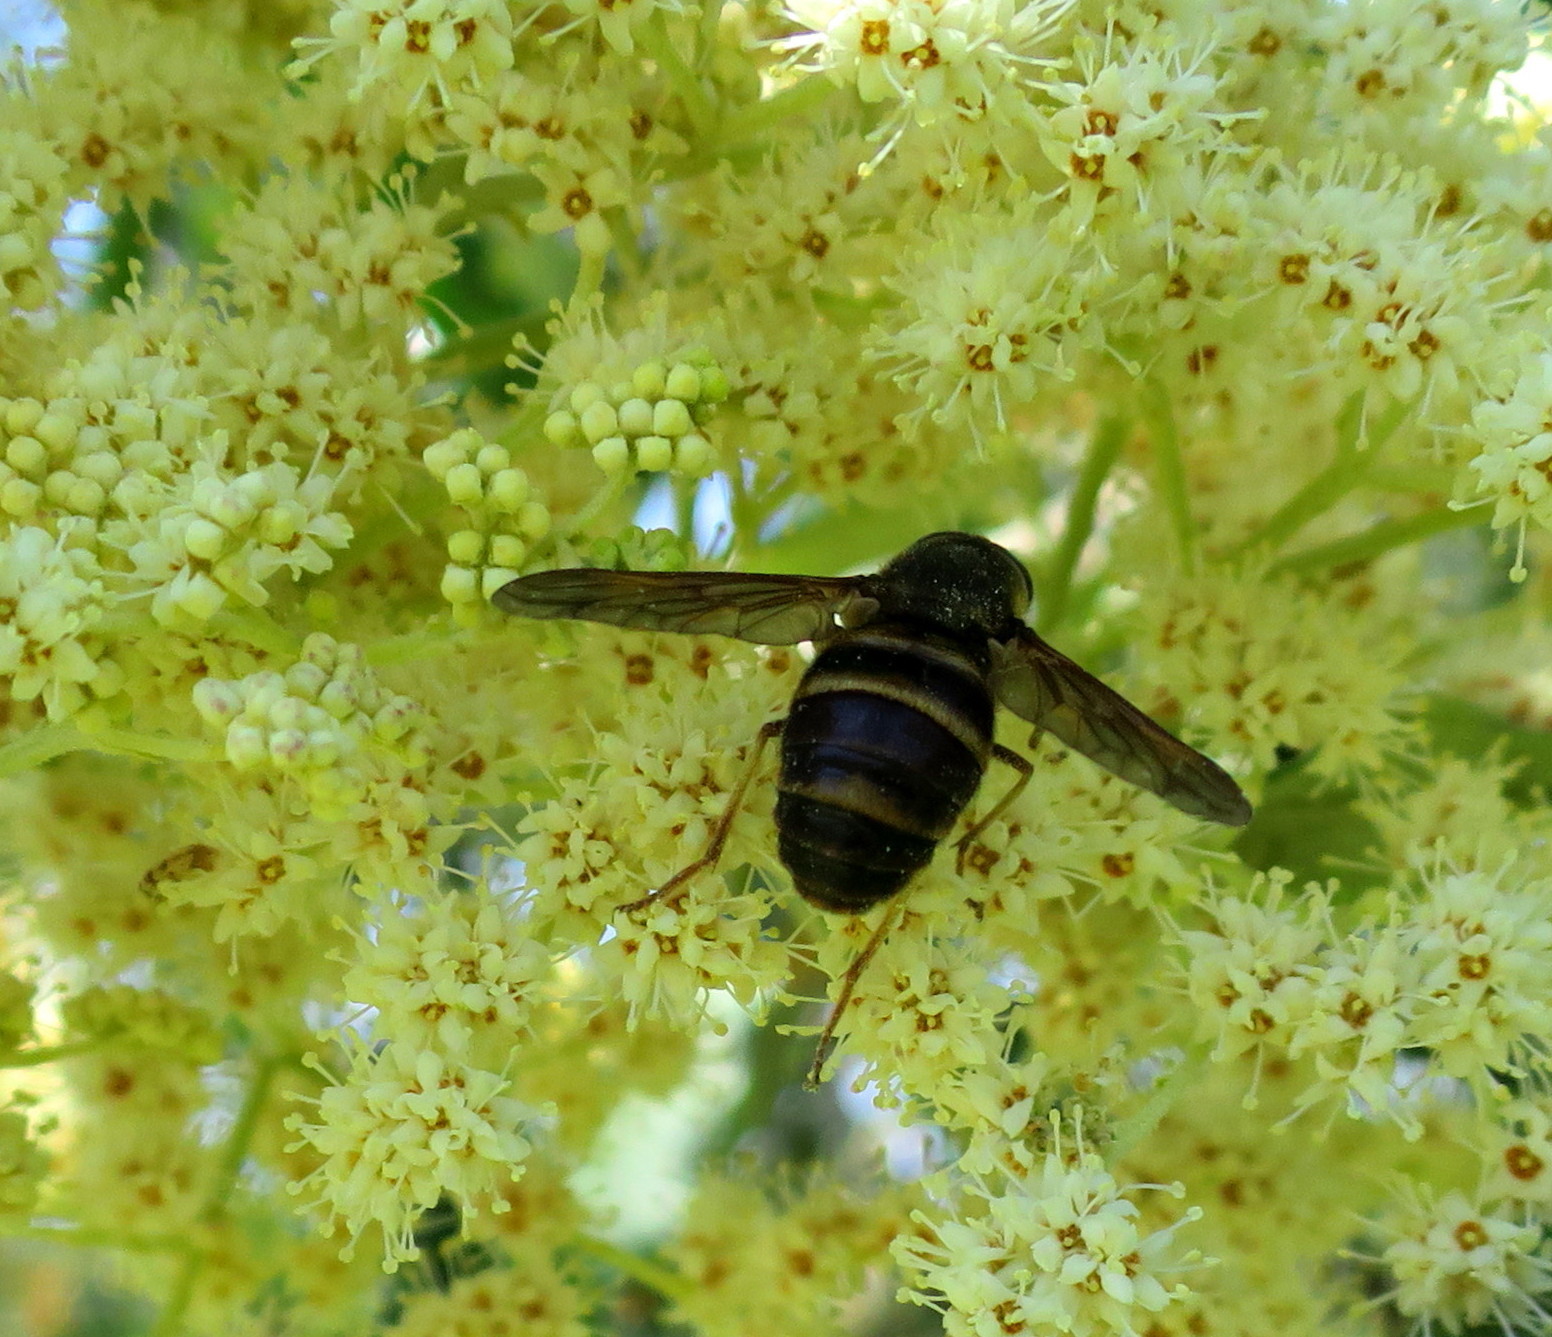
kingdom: Plantae
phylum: Tracheophyta
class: Magnoliopsida
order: Lamiales
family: Scrophulariaceae
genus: Buddleja
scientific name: Buddleja saligna
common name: False olive
